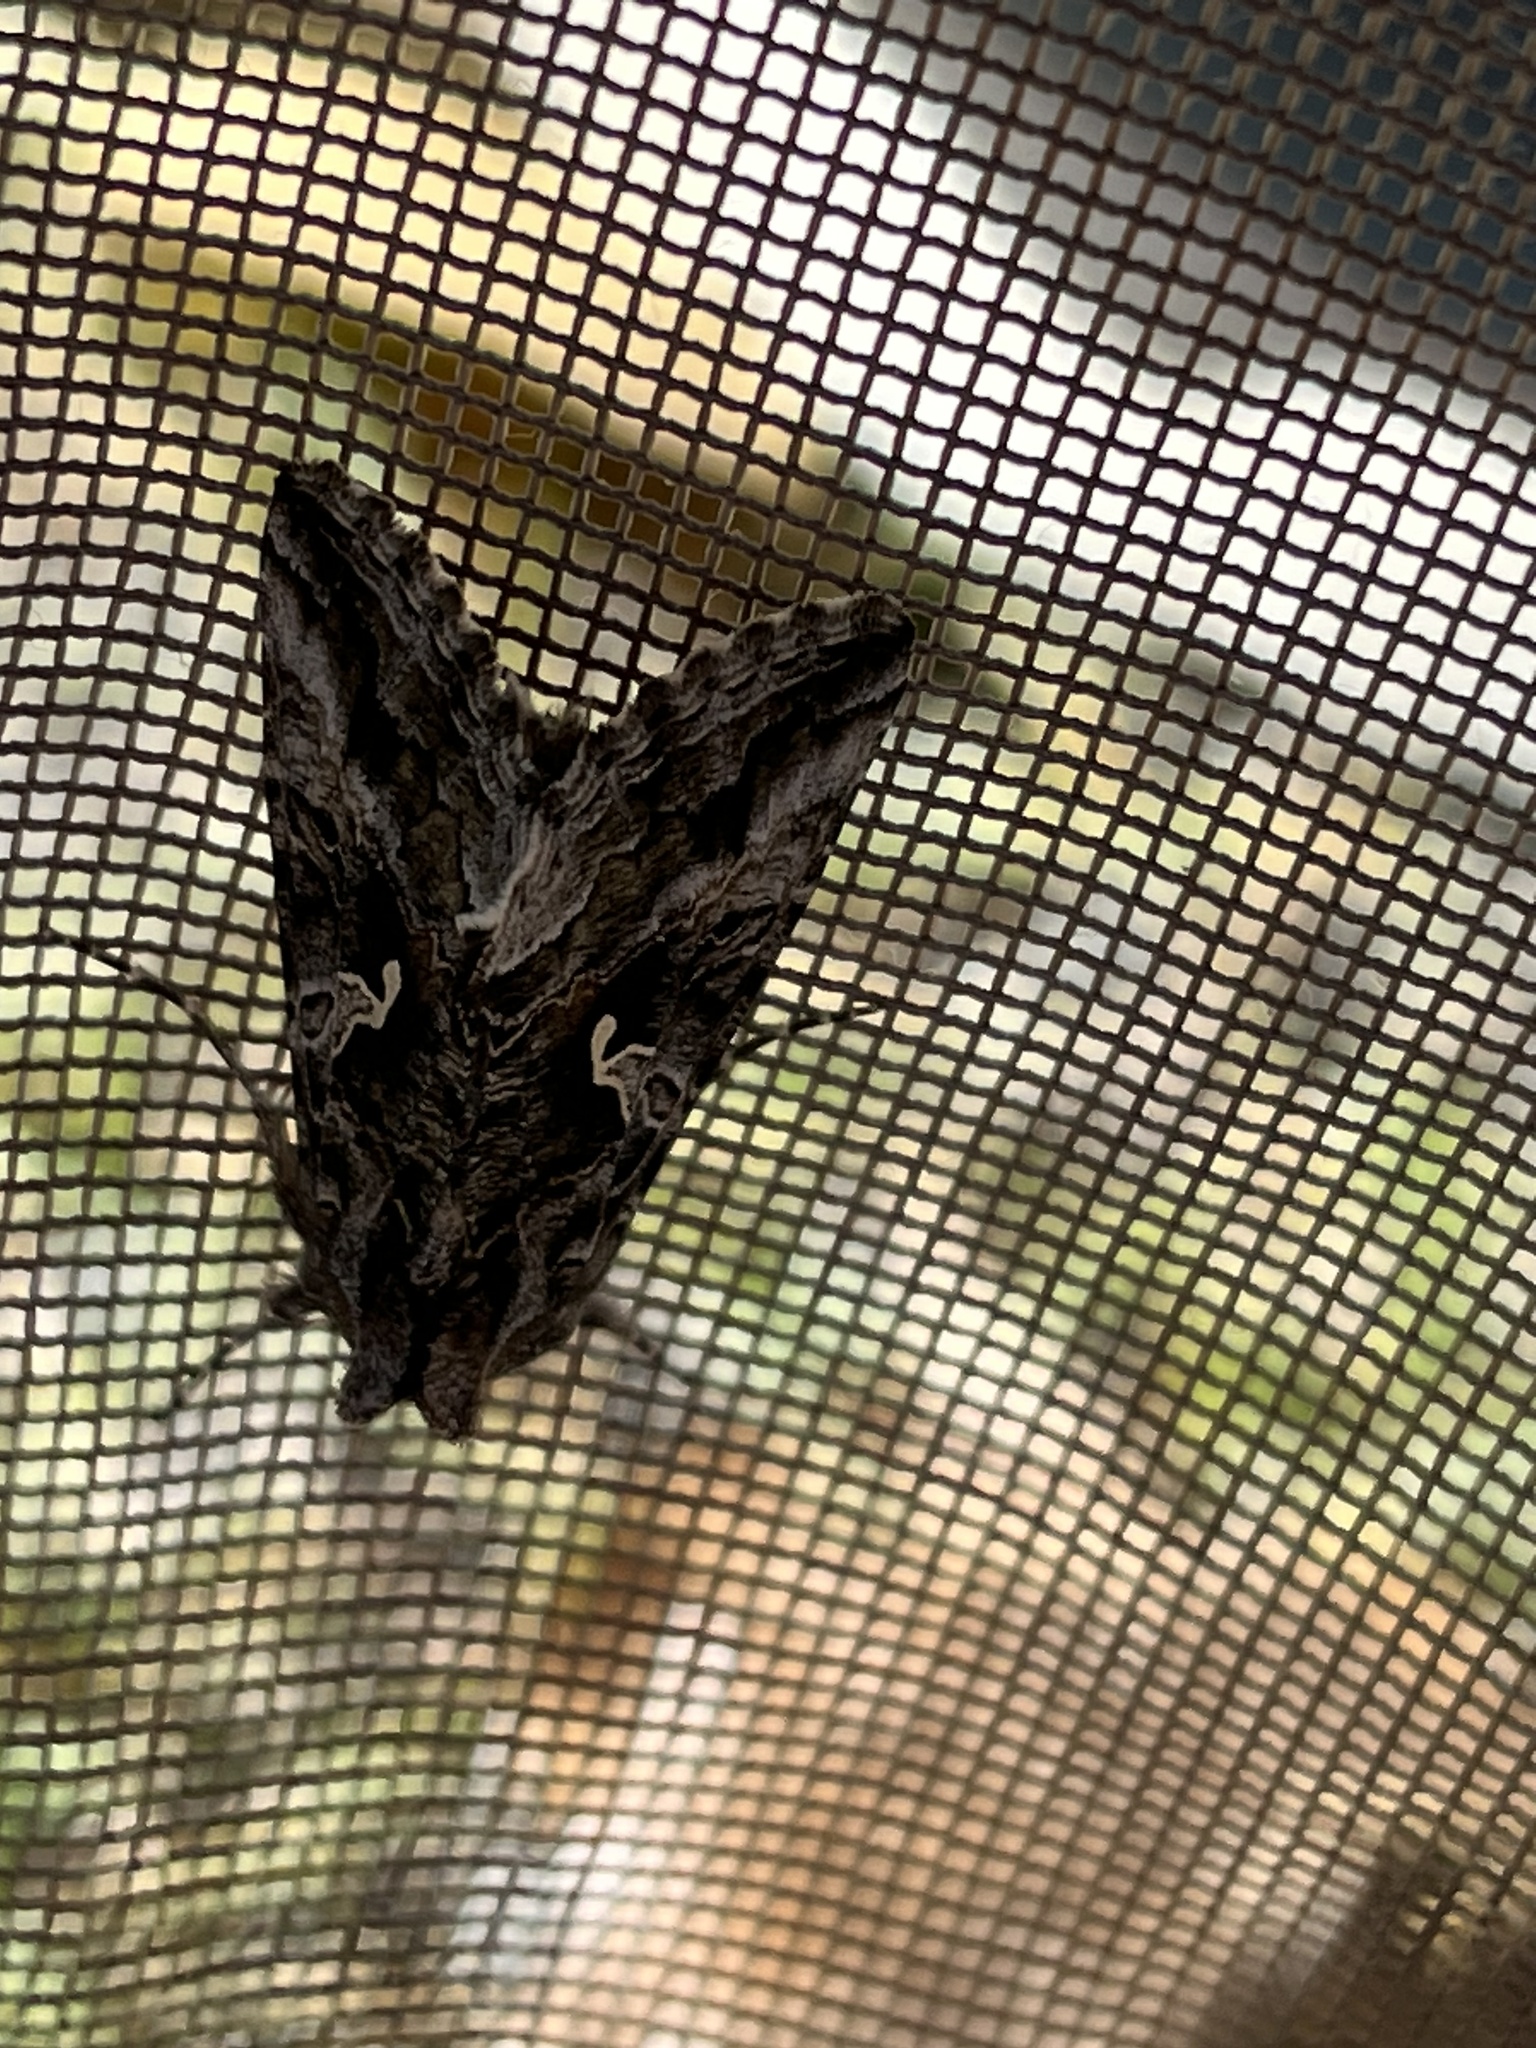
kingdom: Animalia
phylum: Arthropoda
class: Insecta
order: Lepidoptera
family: Noctuidae
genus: Autographa
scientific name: Autographa californica
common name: Alfalfa looper
